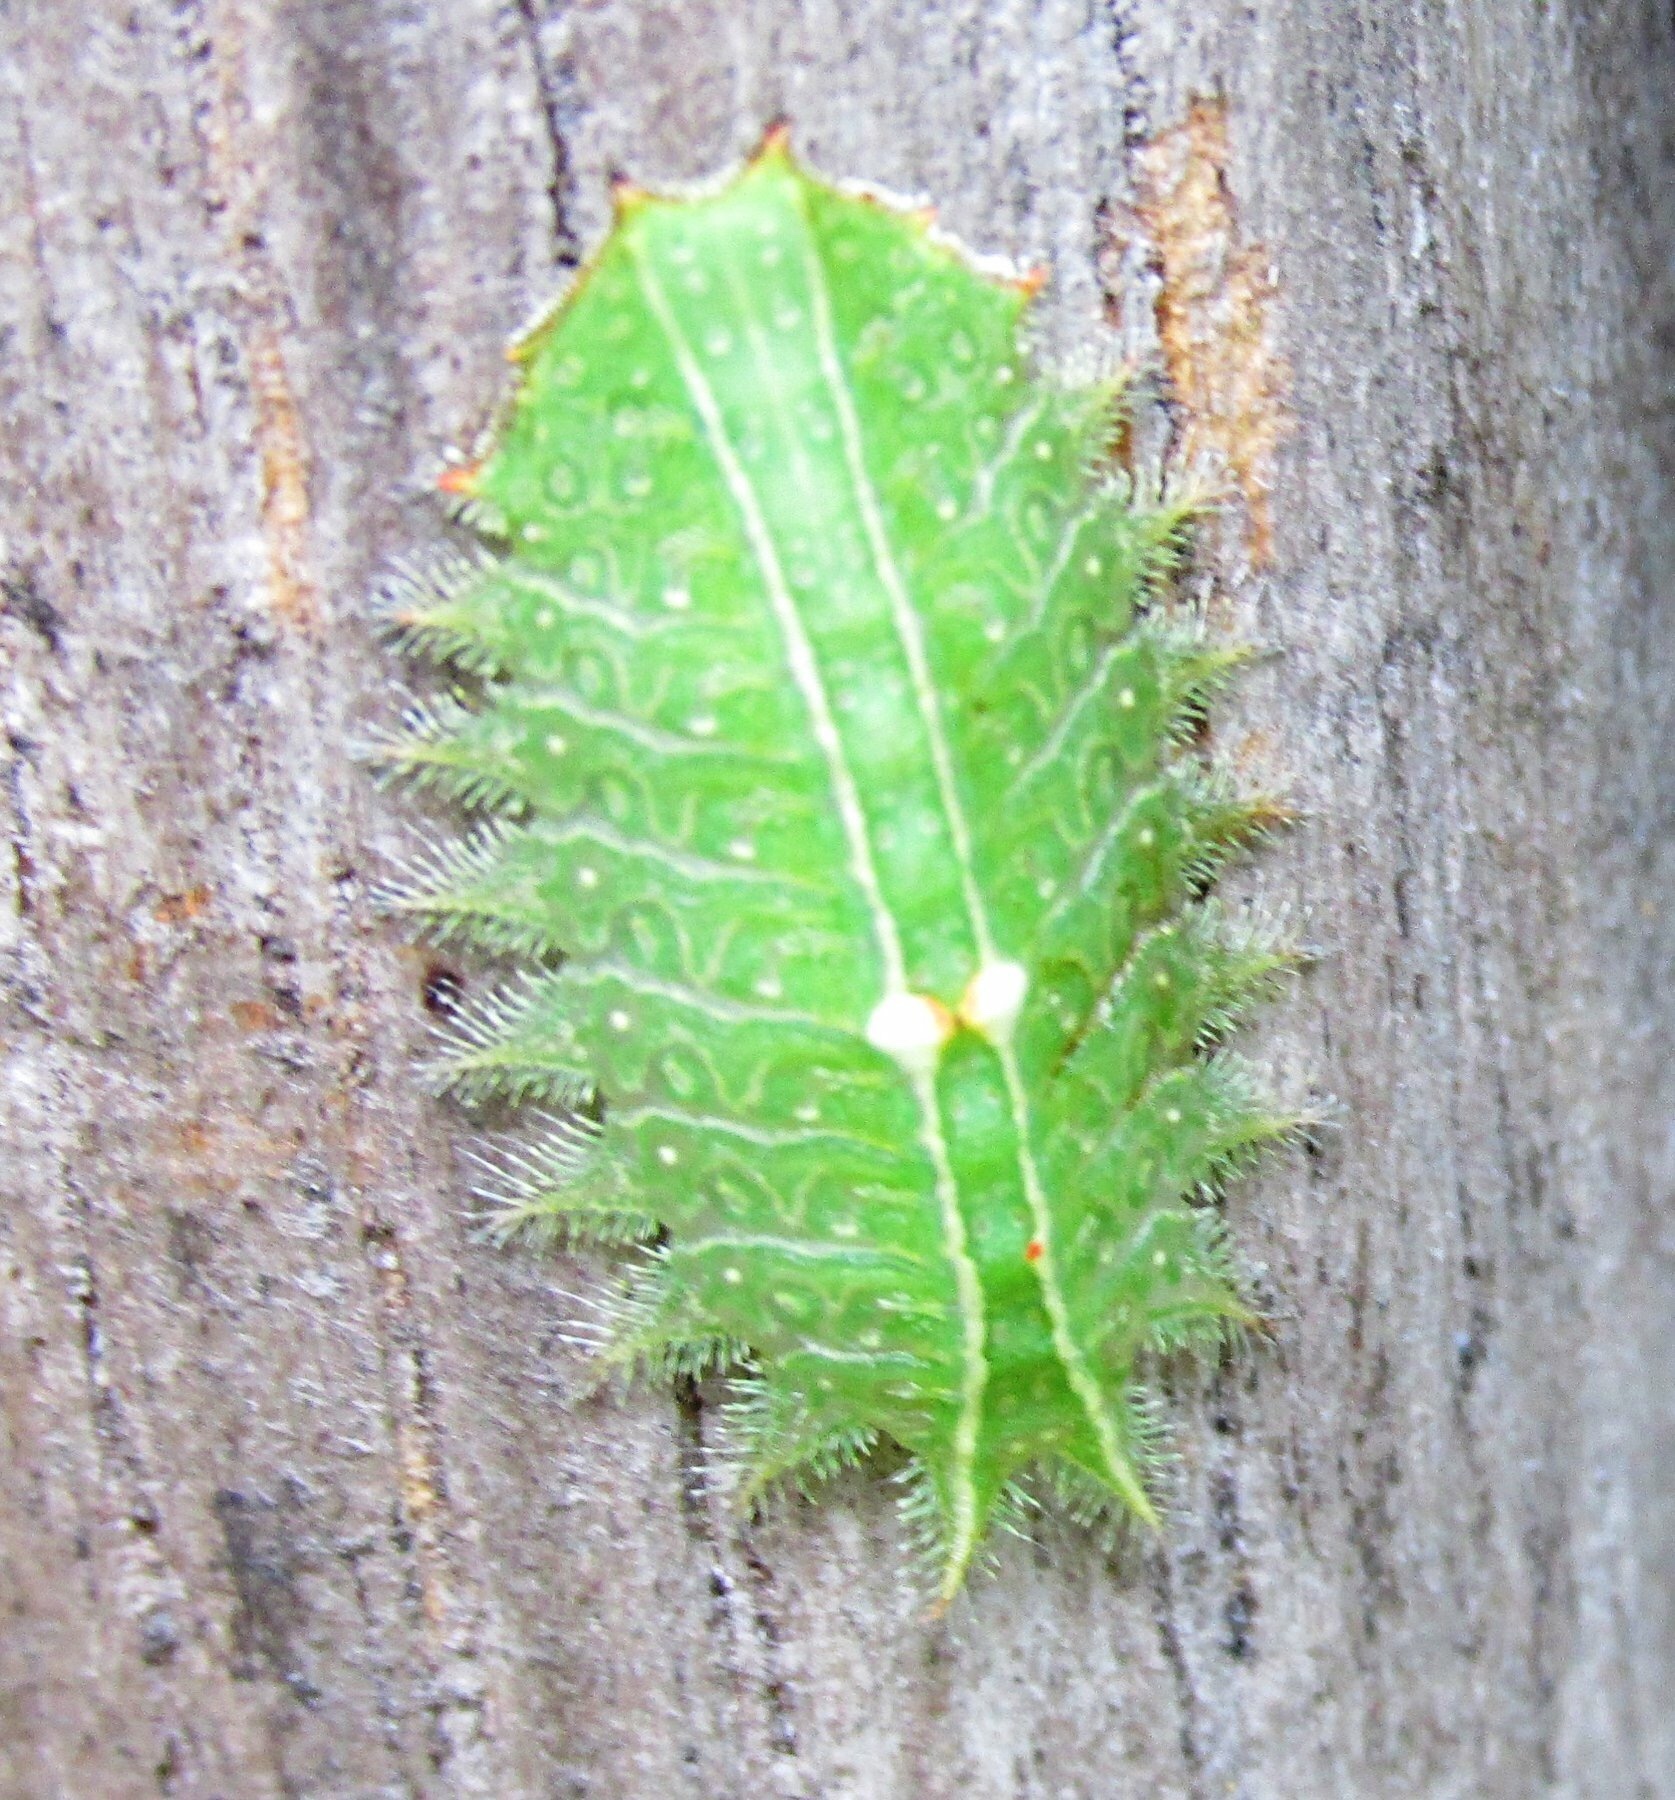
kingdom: Animalia
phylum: Arthropoda
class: Insecta
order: Lepidoptera
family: Limacodidae
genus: Isa
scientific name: Isa textula
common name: Crowned slug moth
